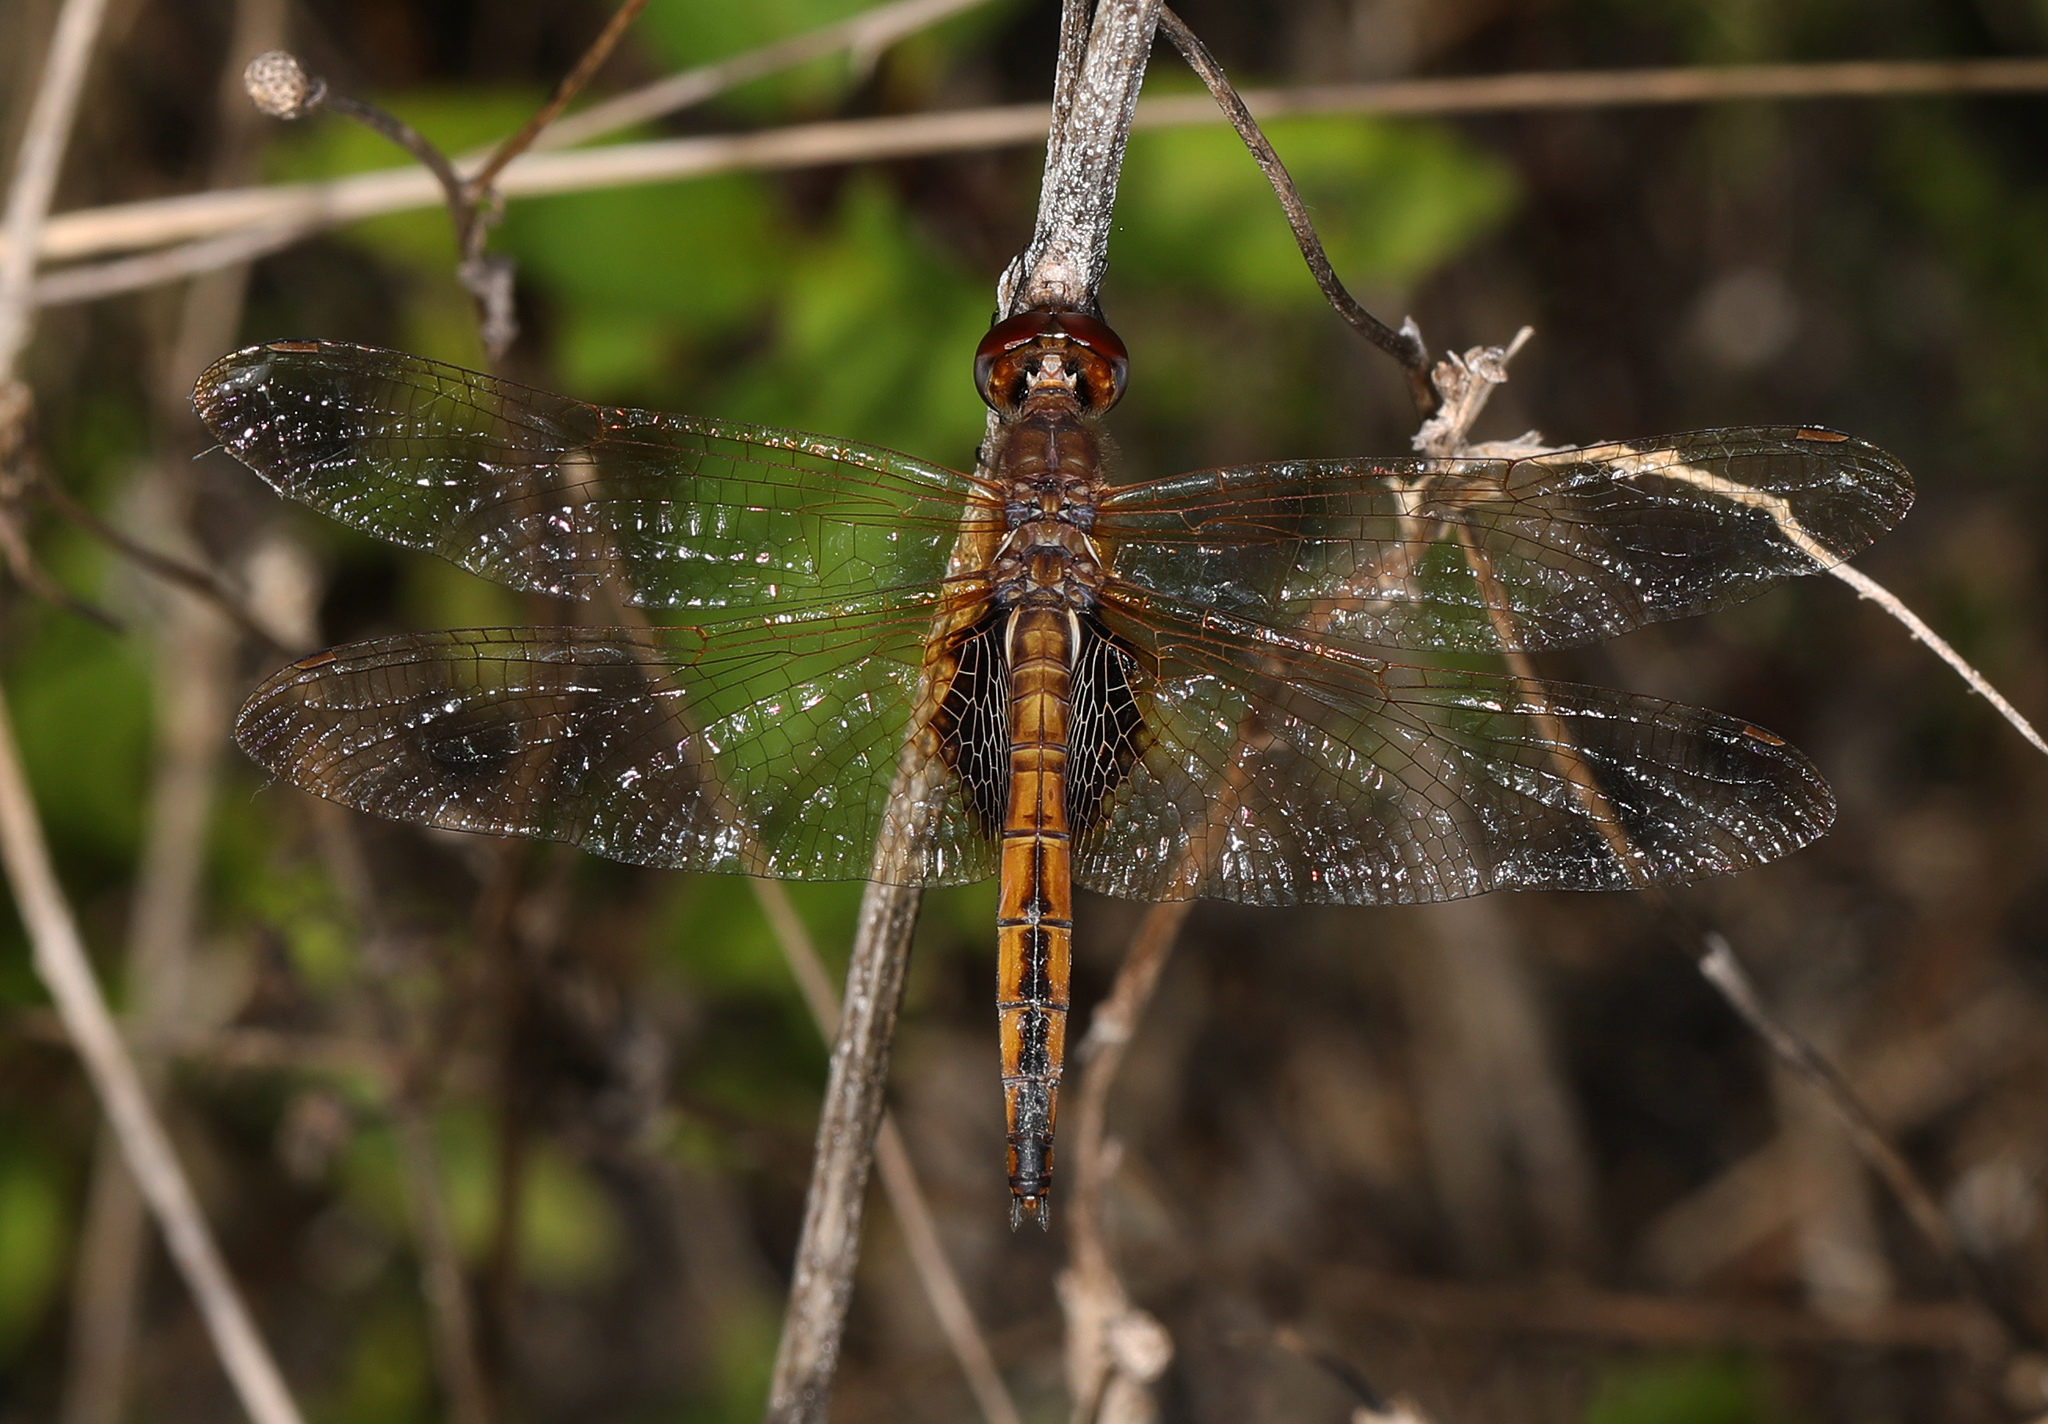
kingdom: Animalia
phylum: Arthropoda
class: Insecta
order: Odonata
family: Libellulidae
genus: Miathyria
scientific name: Miathyria marcella
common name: Hyacinth glider
